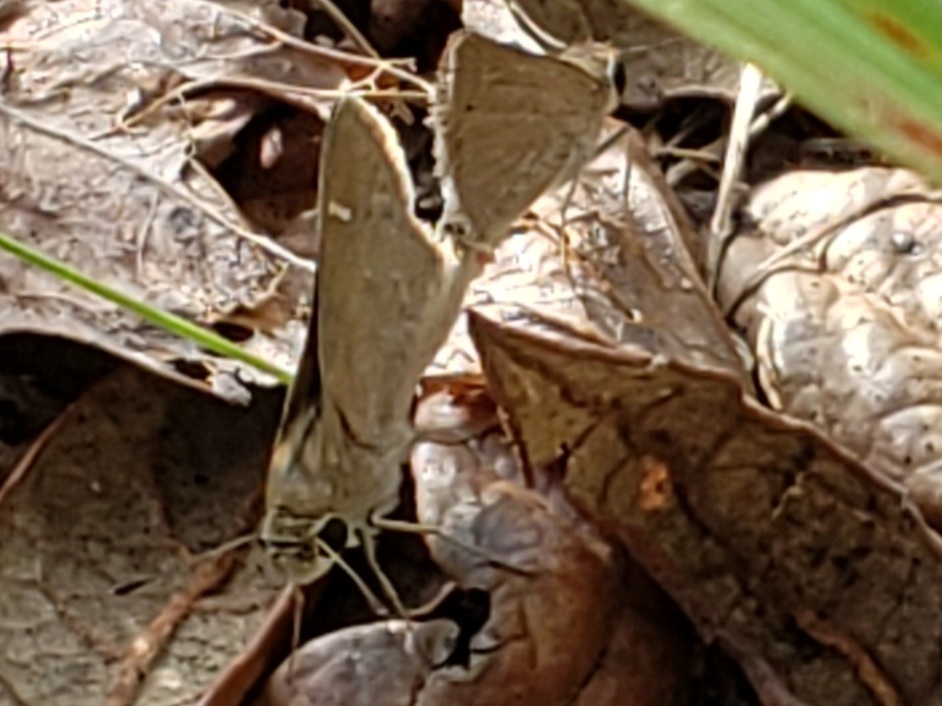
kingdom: Animalia
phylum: Arthropoda
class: Insecta
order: Lepidoptera
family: Hesperiidae
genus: Lerodea
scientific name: Lerodea eufala
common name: Eufala skipper
